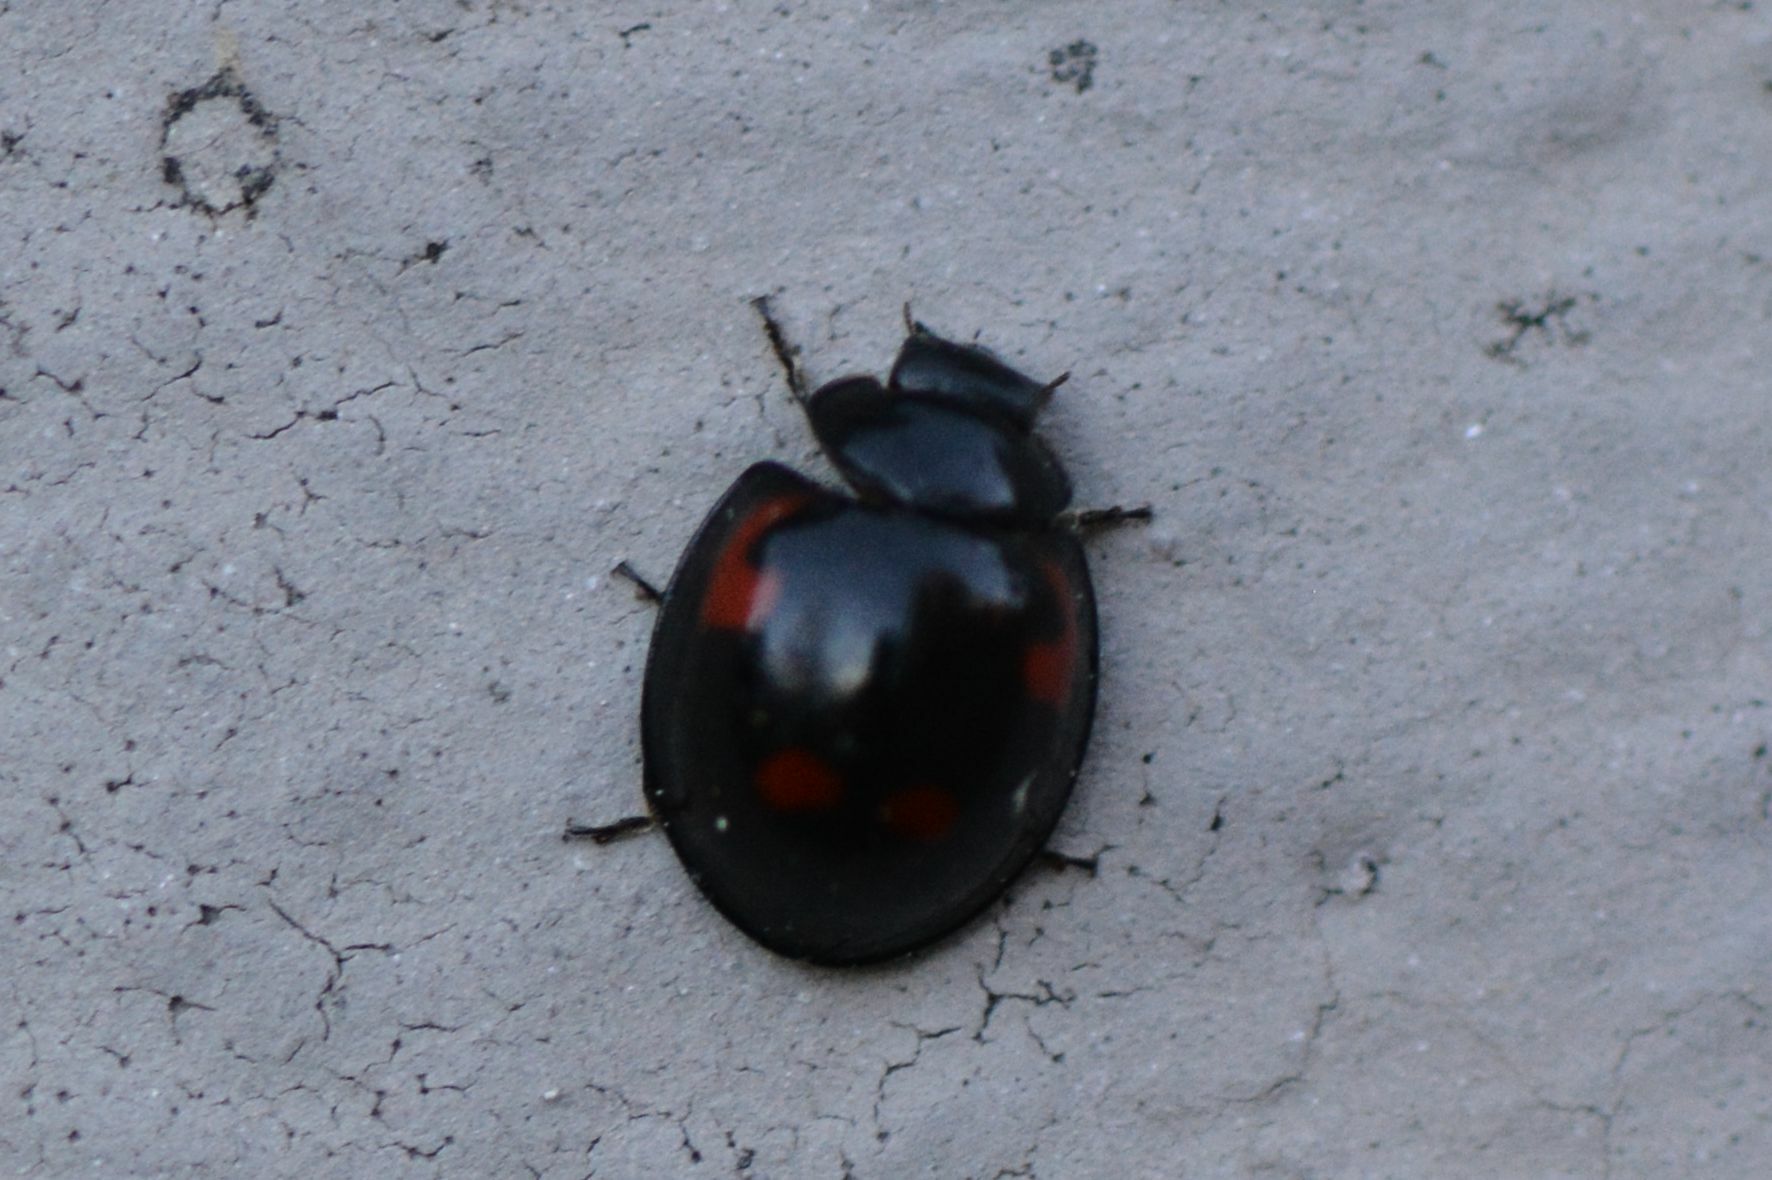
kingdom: Animalia
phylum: Arthropoda
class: Insecta
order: Coleoptera
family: Coccinellidae
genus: Brumus
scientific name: Brumus quadripustulatus
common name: Ladybird beetle
